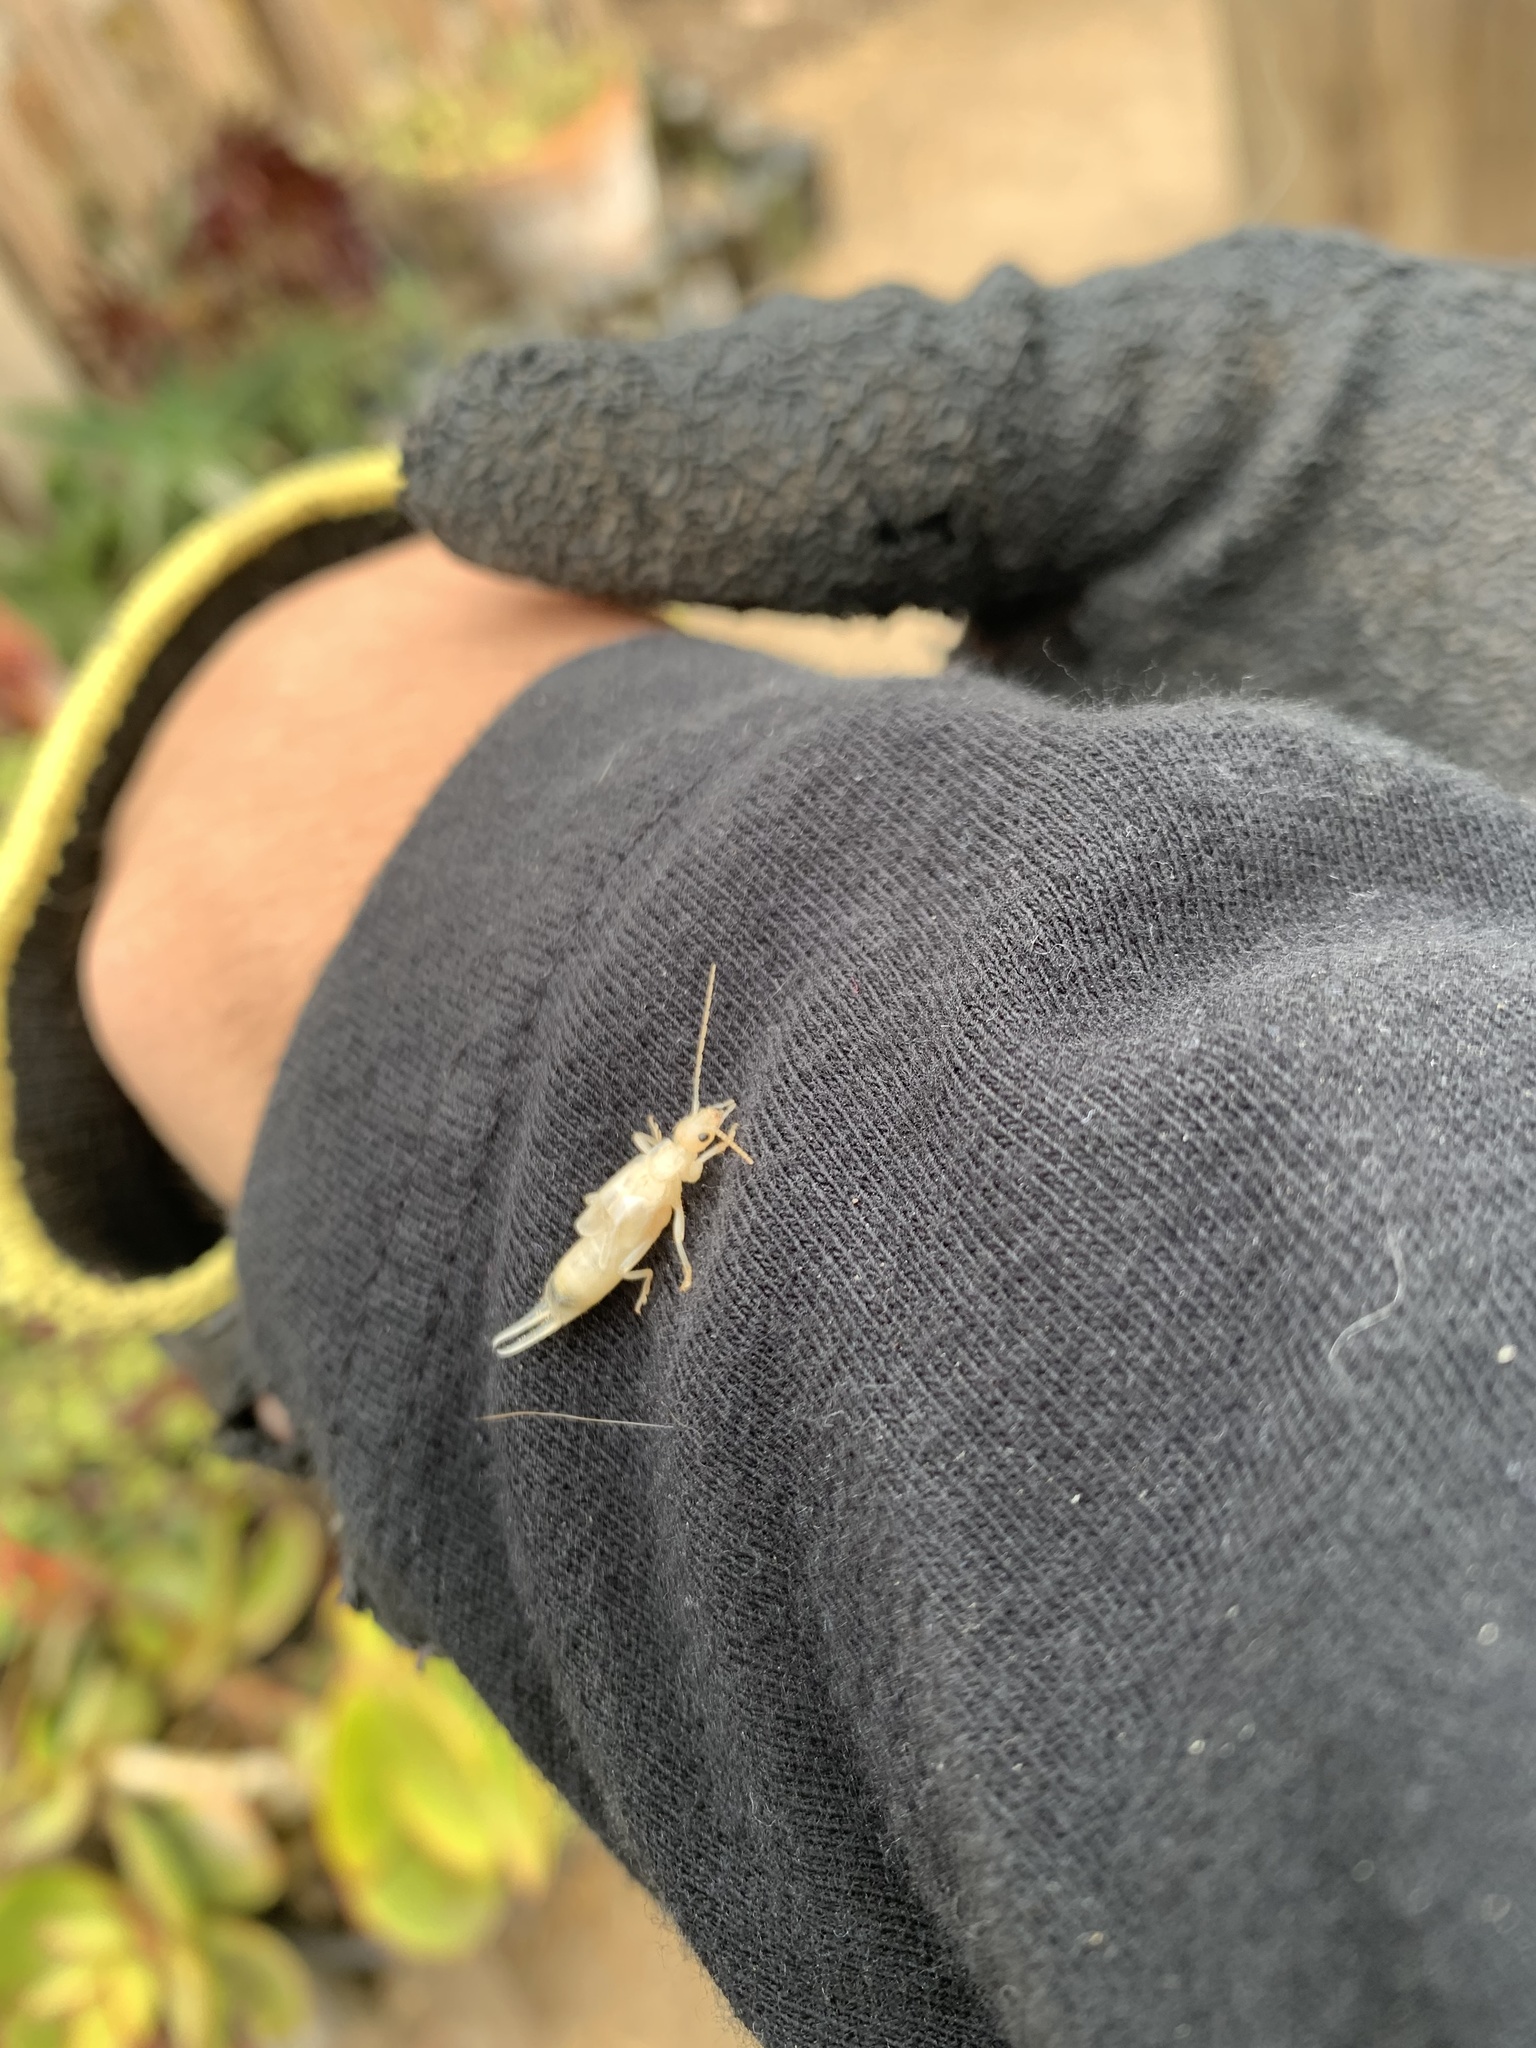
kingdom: Animalia
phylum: Arthropoda
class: Insecta
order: Dermaptera
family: Forficulidae
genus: Forficula
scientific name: Forficula
